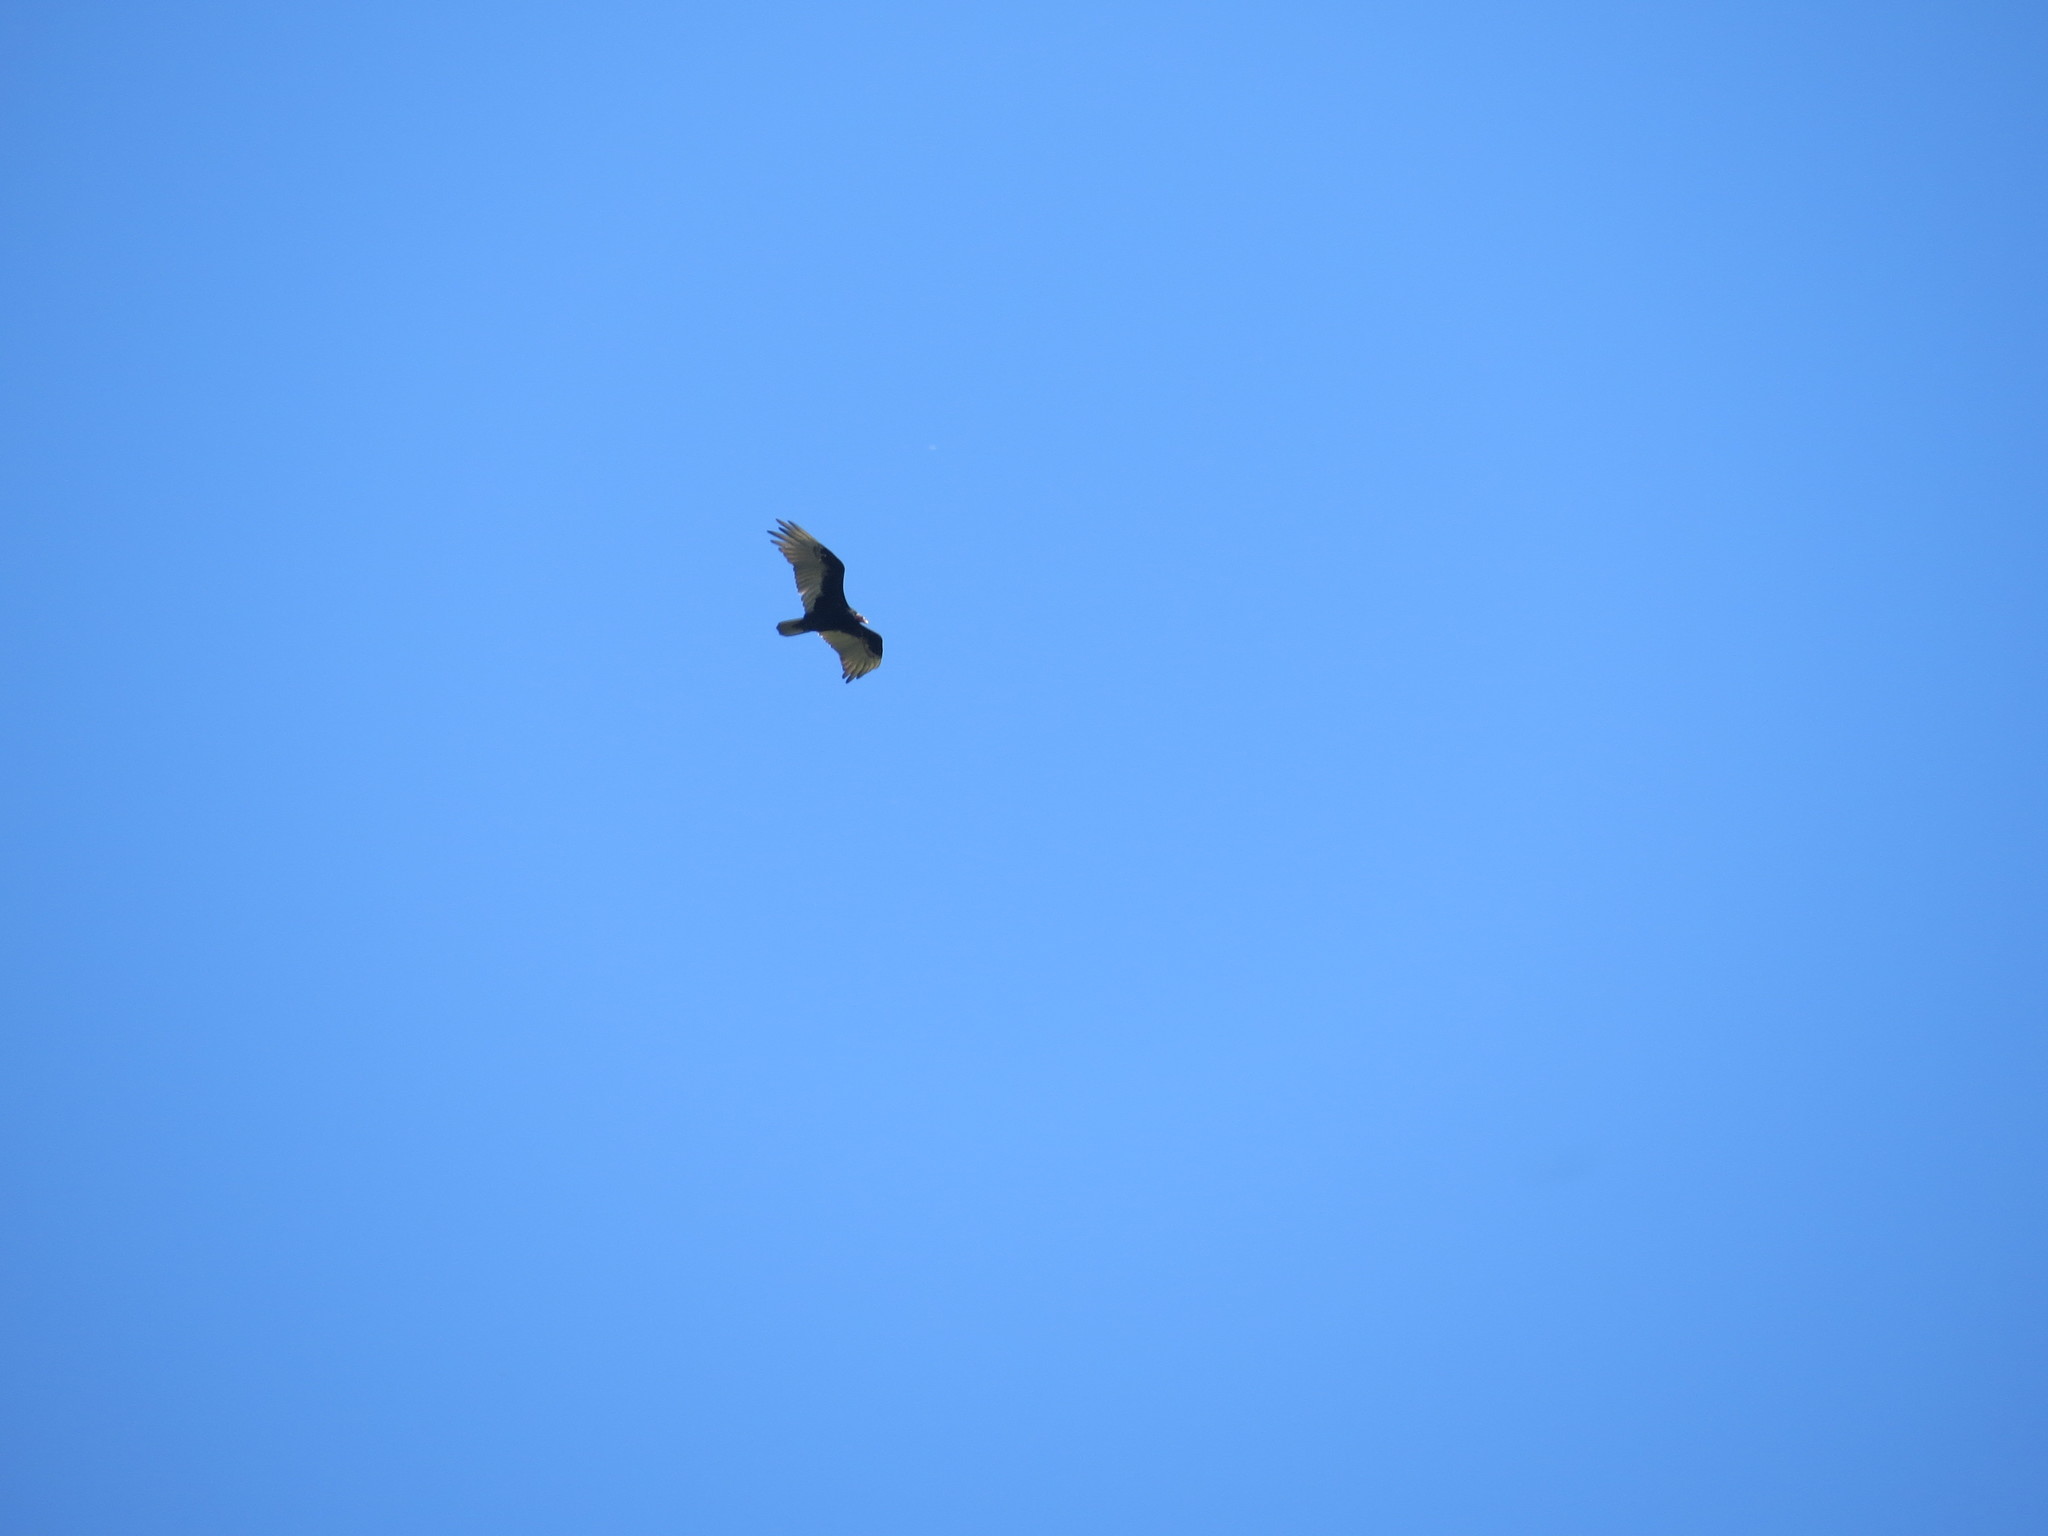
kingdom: Animalia
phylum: Chordata
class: Aves
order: Accipitriformes
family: Cathartidae
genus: Cathartes
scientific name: Cathartes aura
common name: Turkey vulture
